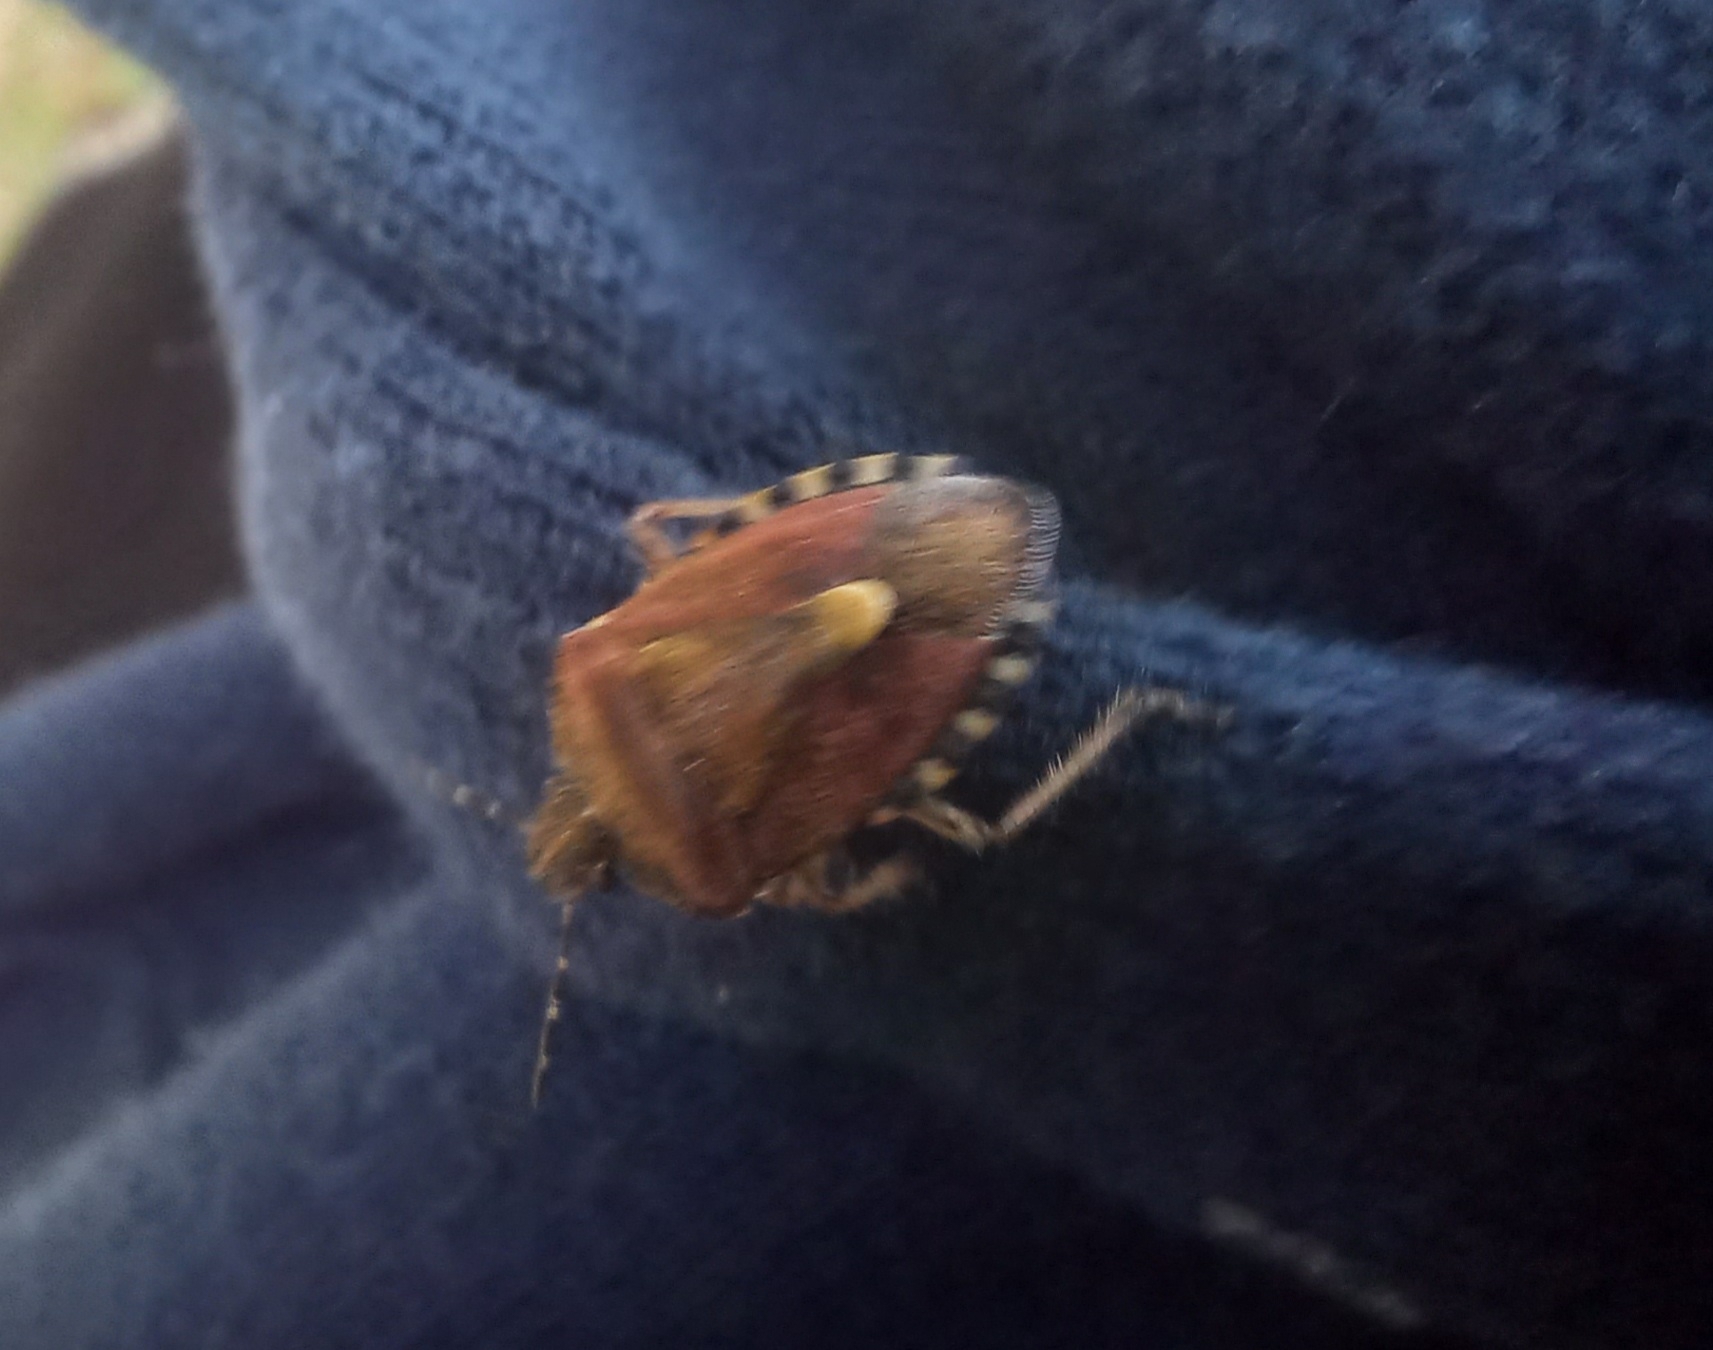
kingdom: Animalia
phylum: Arthropoda
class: Insecta
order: Hemiptera
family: Pentatomidae
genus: Dolycoris
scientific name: Dolycoris baccarum
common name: Sloe bug
